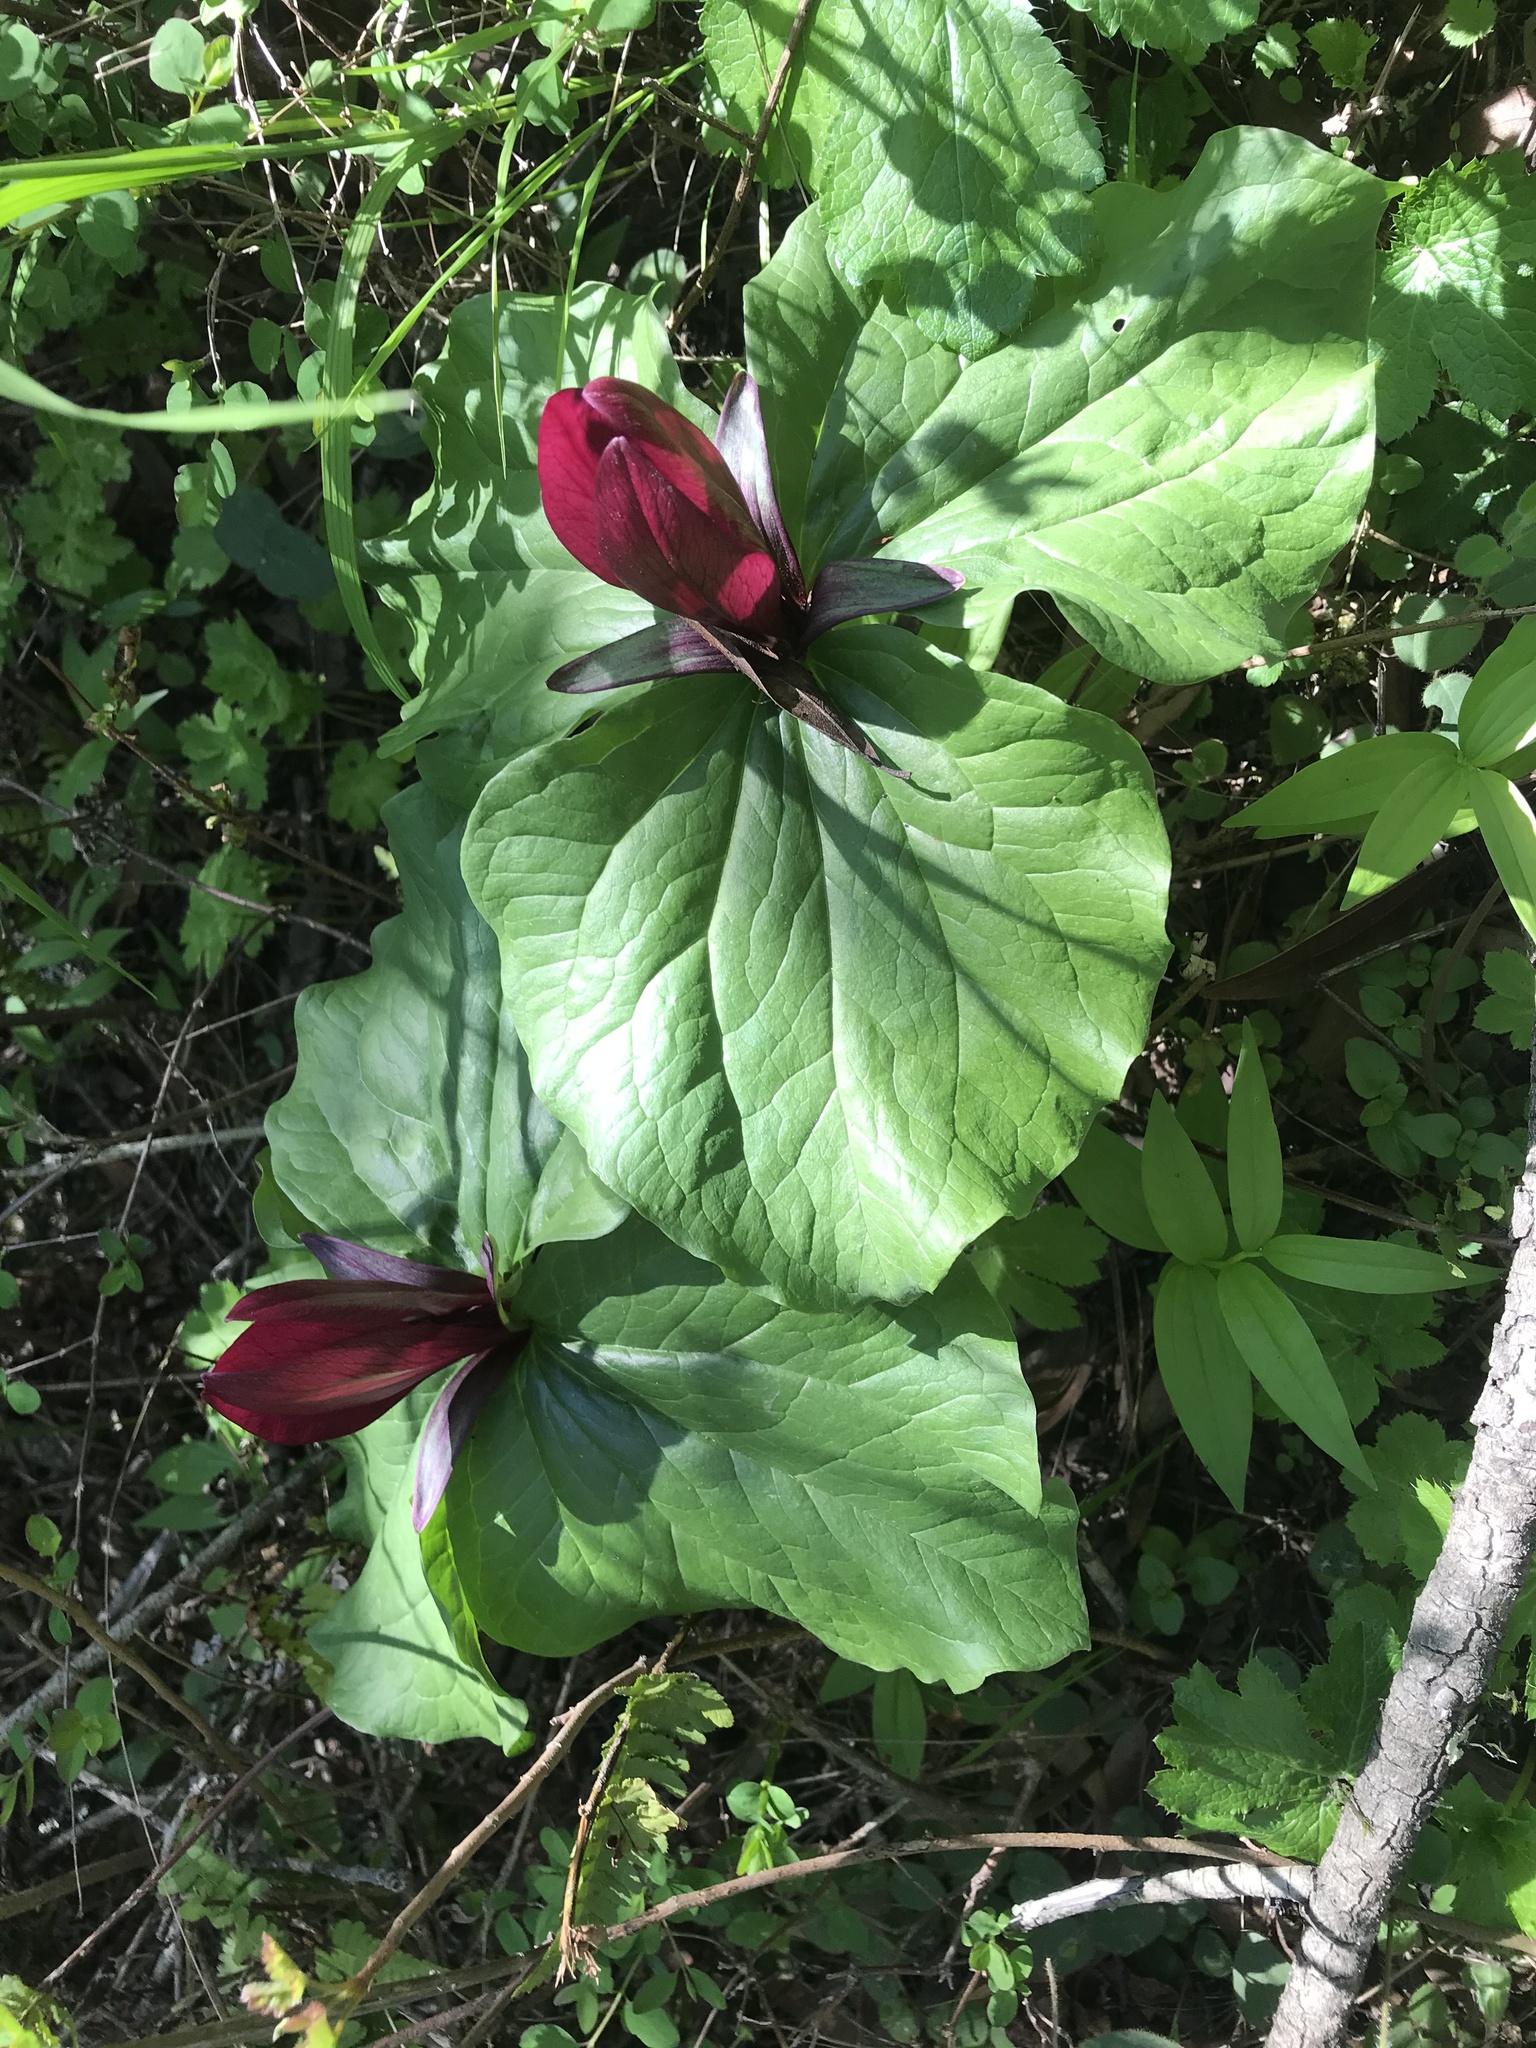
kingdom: Plantae
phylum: Tracheophyta
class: Liliopsida
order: Liliales
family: Melanthiaceae
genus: Trillium
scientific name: Trillium chloropetalum
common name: Giant trillium
